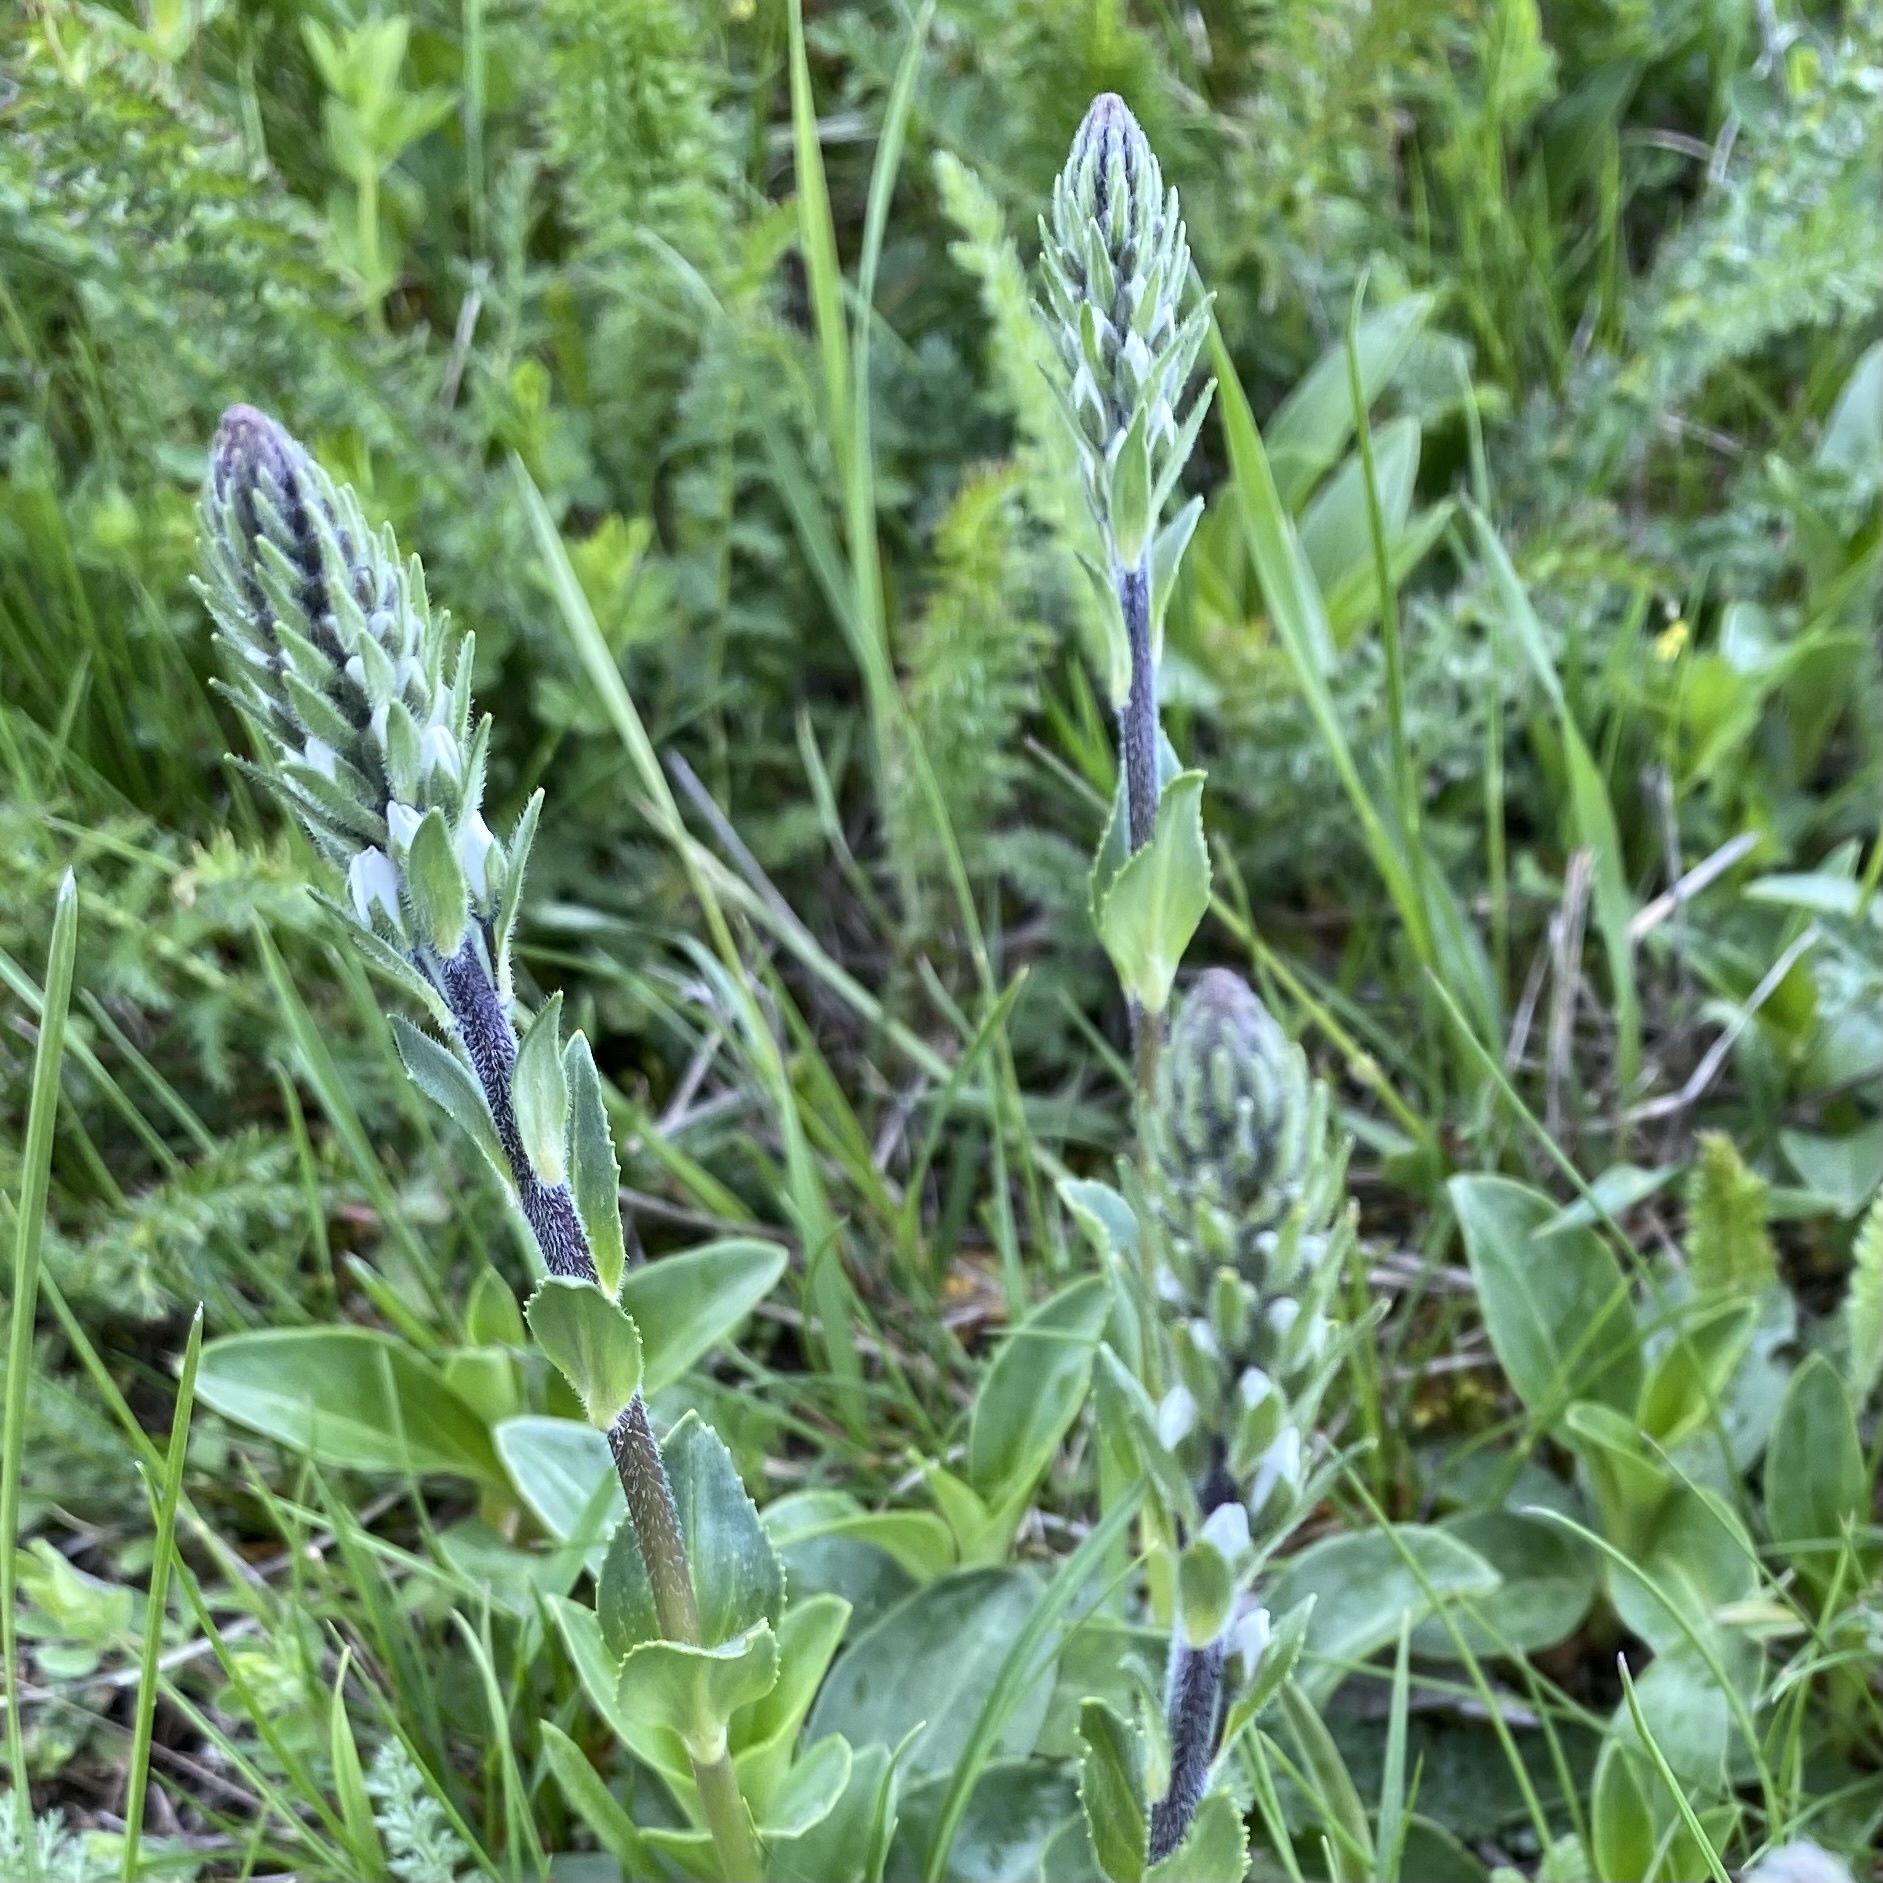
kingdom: Plantae
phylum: Tracheophyta
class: Magnoliopsida
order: Lamiales
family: Plantaginaceae
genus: Veronica
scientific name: Veronica gentianoides
